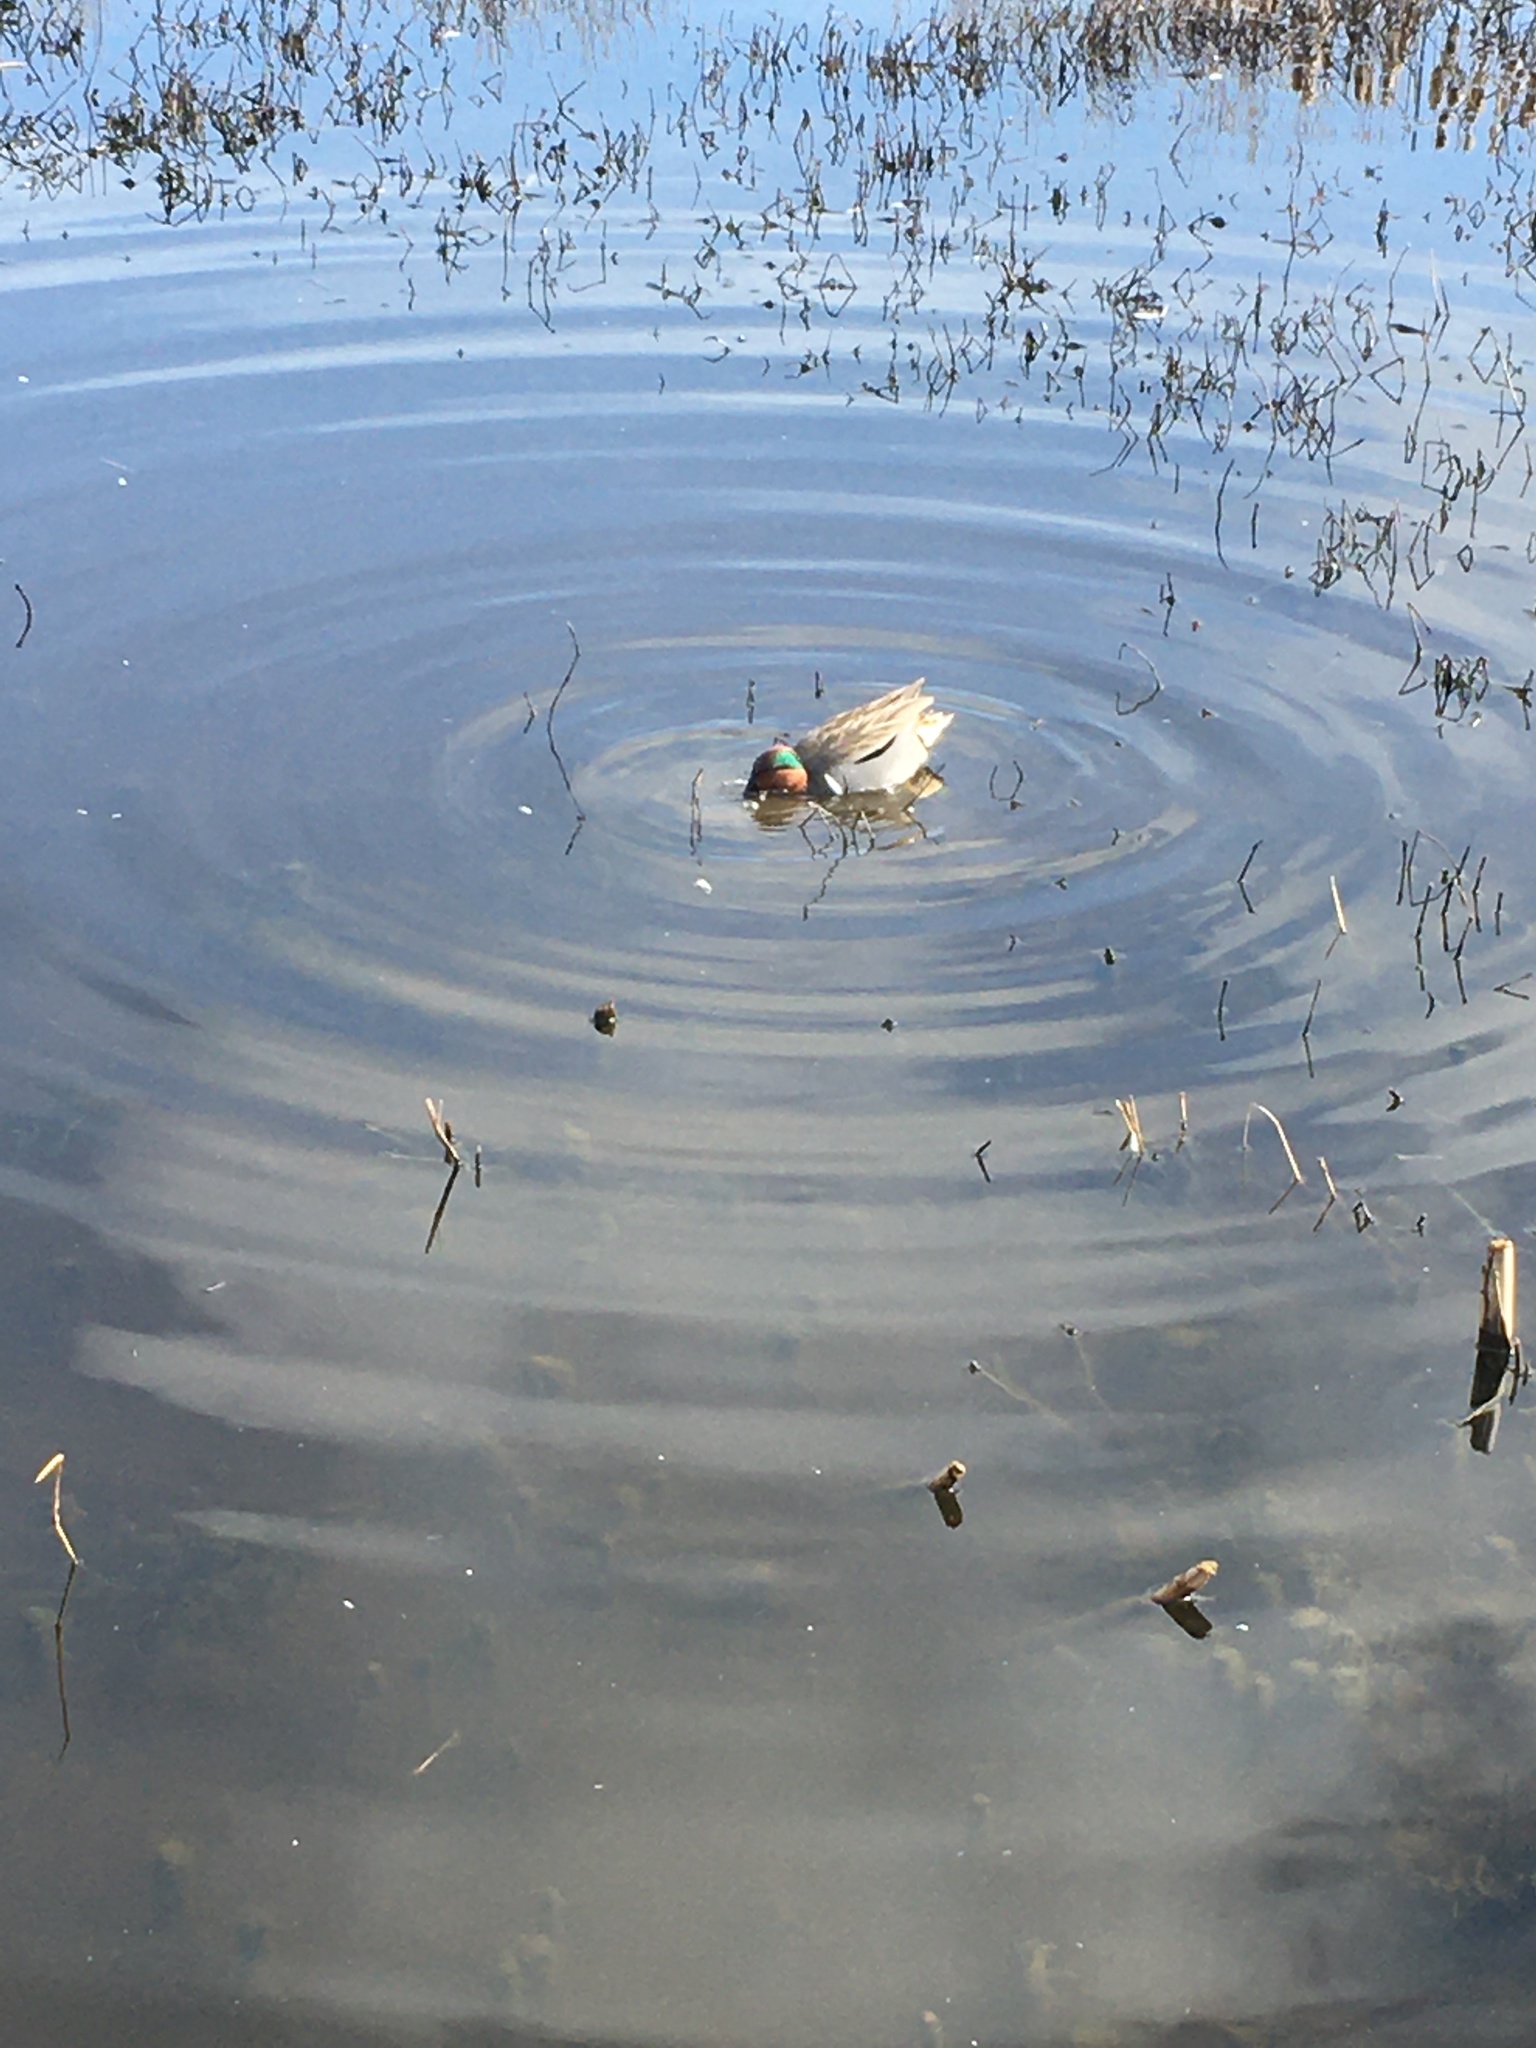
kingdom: Animalia
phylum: Chordata
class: Aves
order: Anseriformes
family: Anatidae
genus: Anas
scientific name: Anas crecca
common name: Eurasian teal
